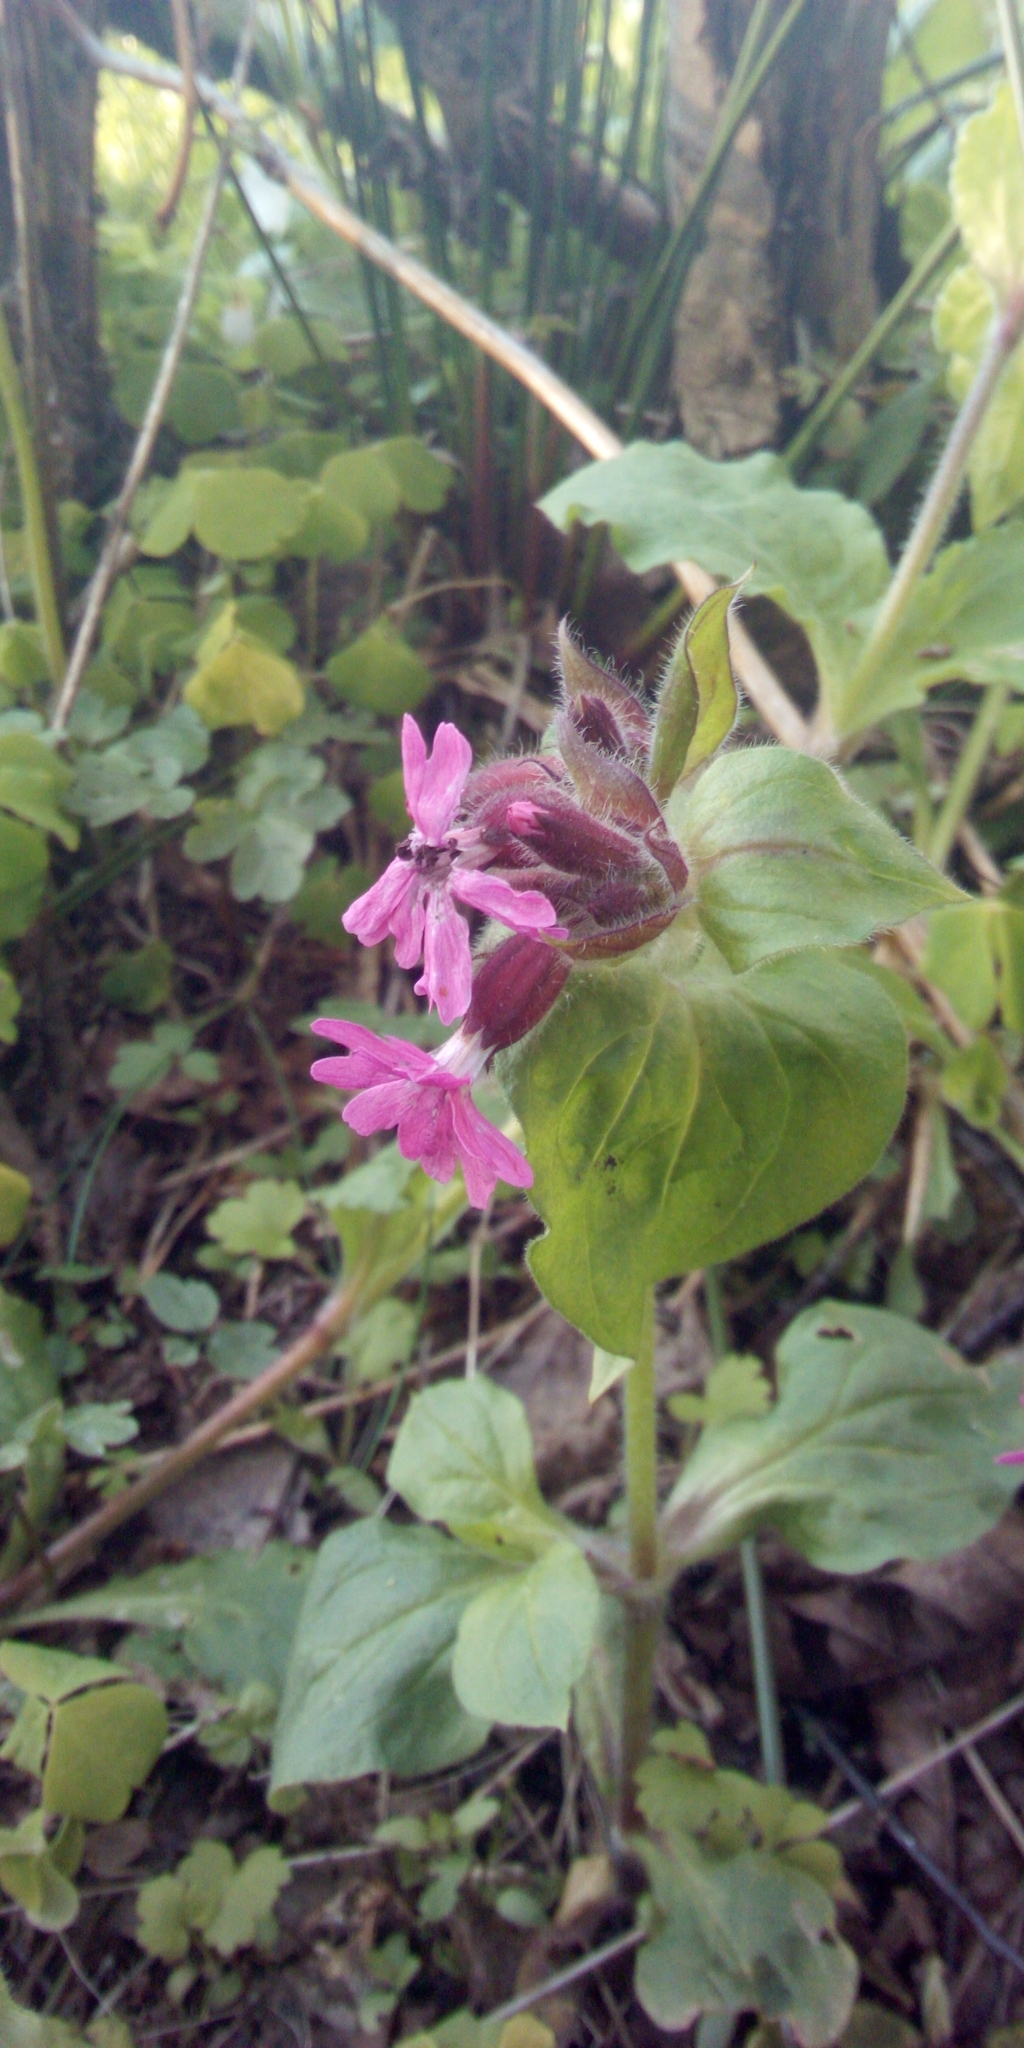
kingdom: Plantae
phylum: Tracheophyta
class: Magnoliopsida
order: Caryophyllales
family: Caryophyllaceae
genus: Silene
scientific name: Silene dioica
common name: Red campion
